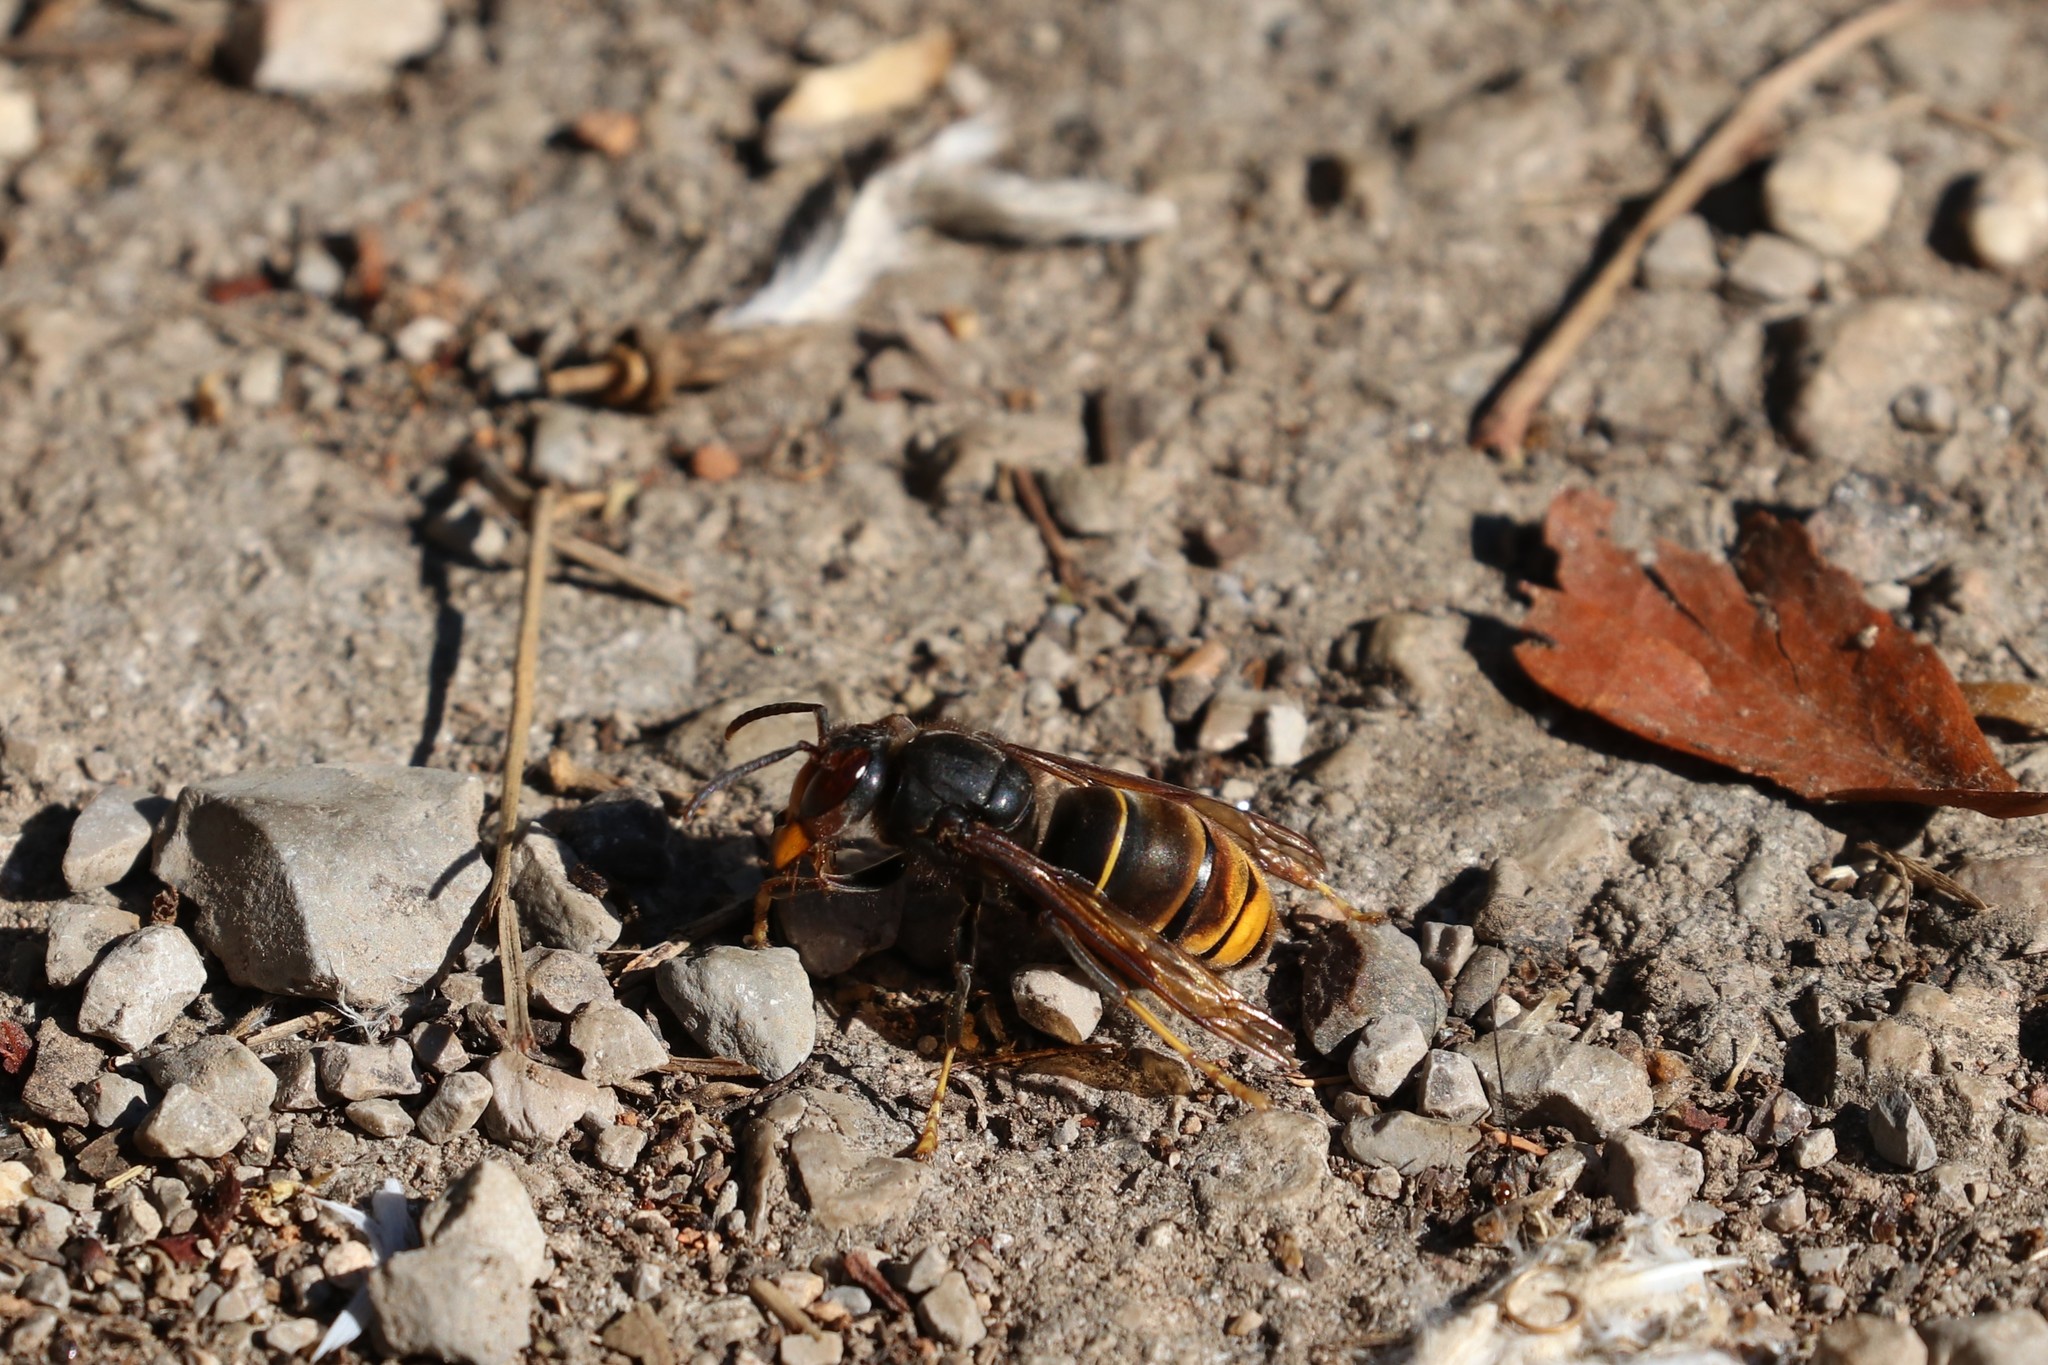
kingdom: Animalia
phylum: Arthropoda
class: Insecta
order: Hymenoptera
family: Vespidae
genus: Vespa
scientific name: Vespa velutina
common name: Asian hornet
